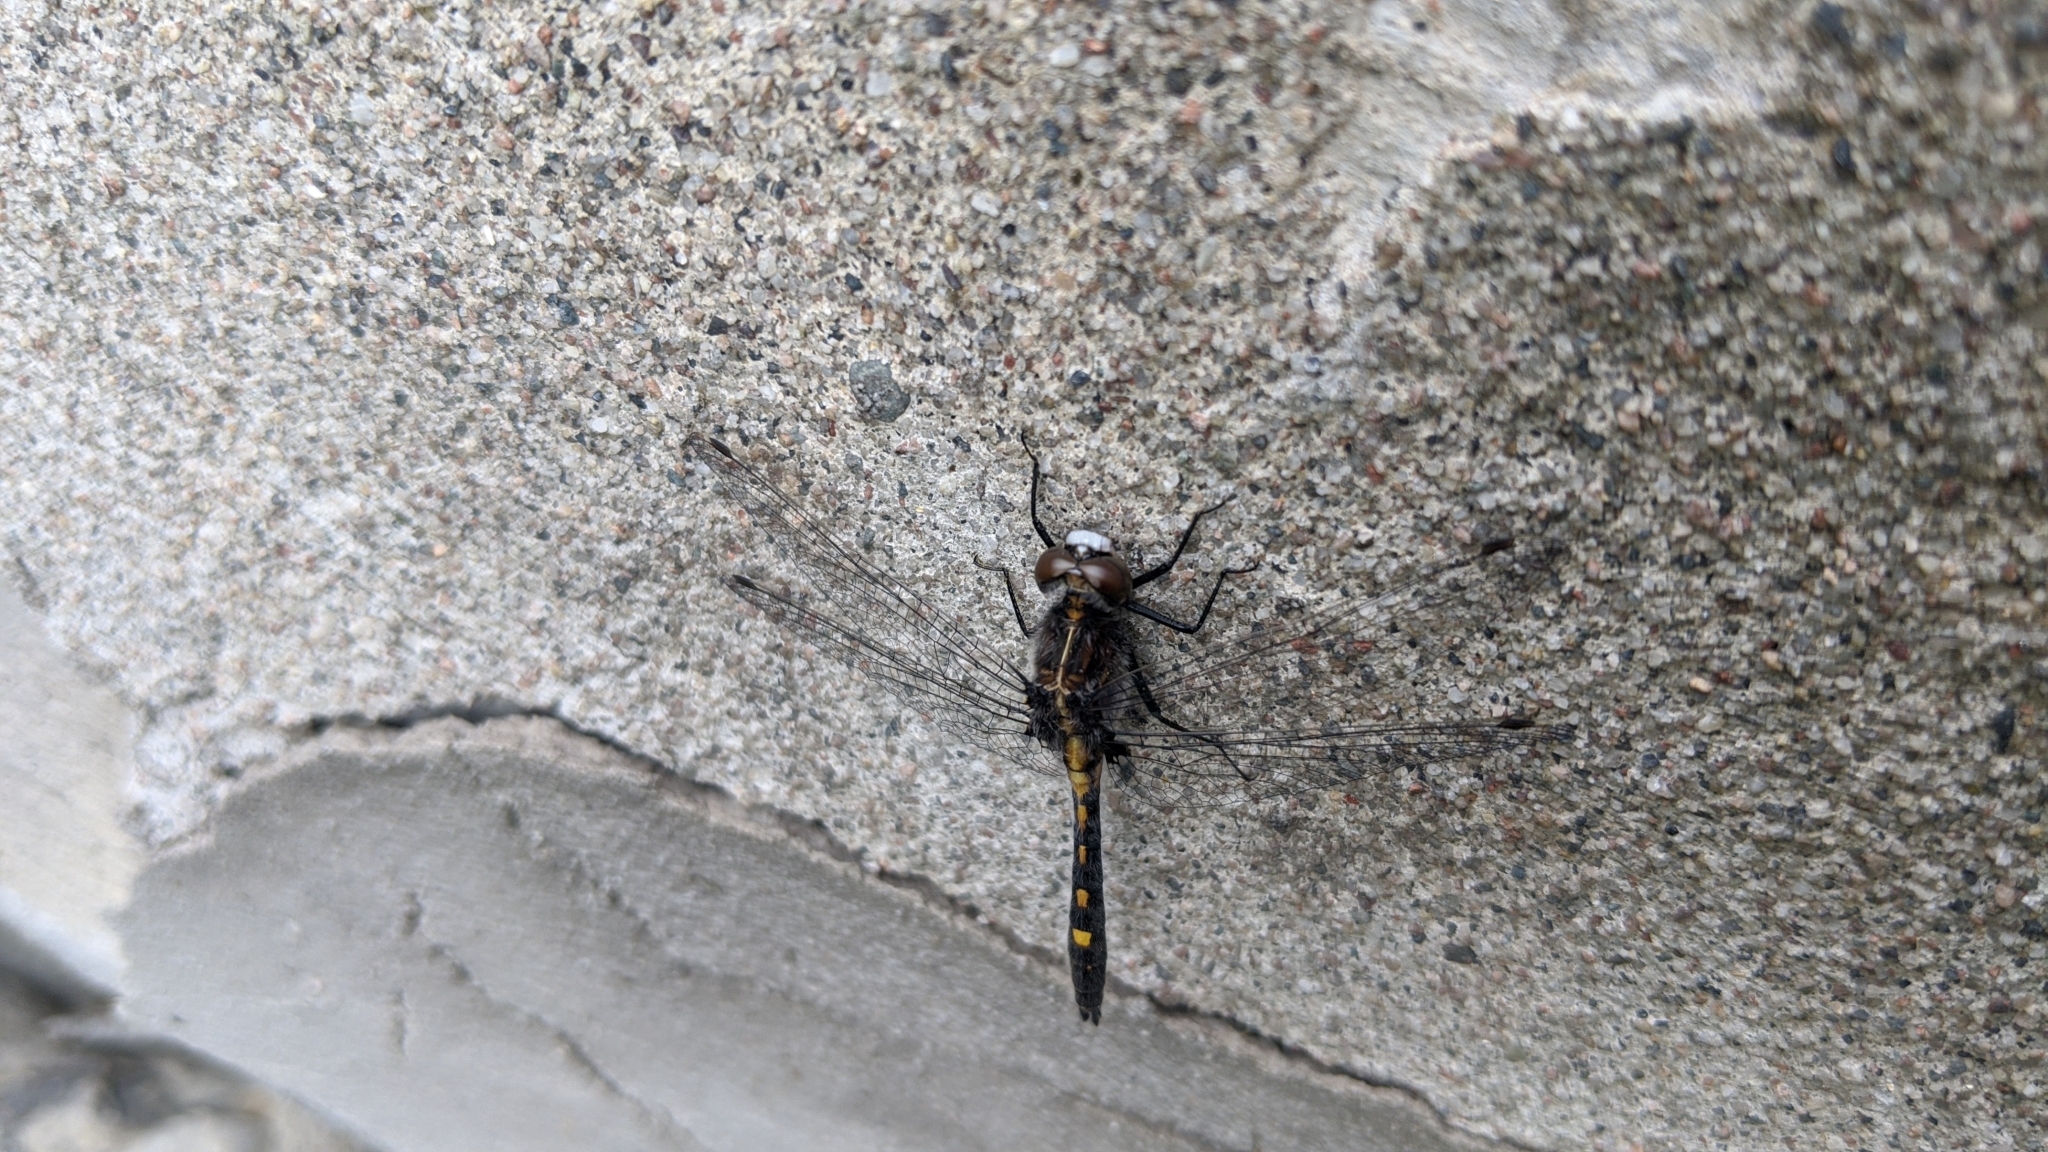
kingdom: Animalia
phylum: Arthropoda
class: Insecta
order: Odonata
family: Libellulidae
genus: Leucorrhinia
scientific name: Leucorrhinia intacta
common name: Dot-tailed whiteface
